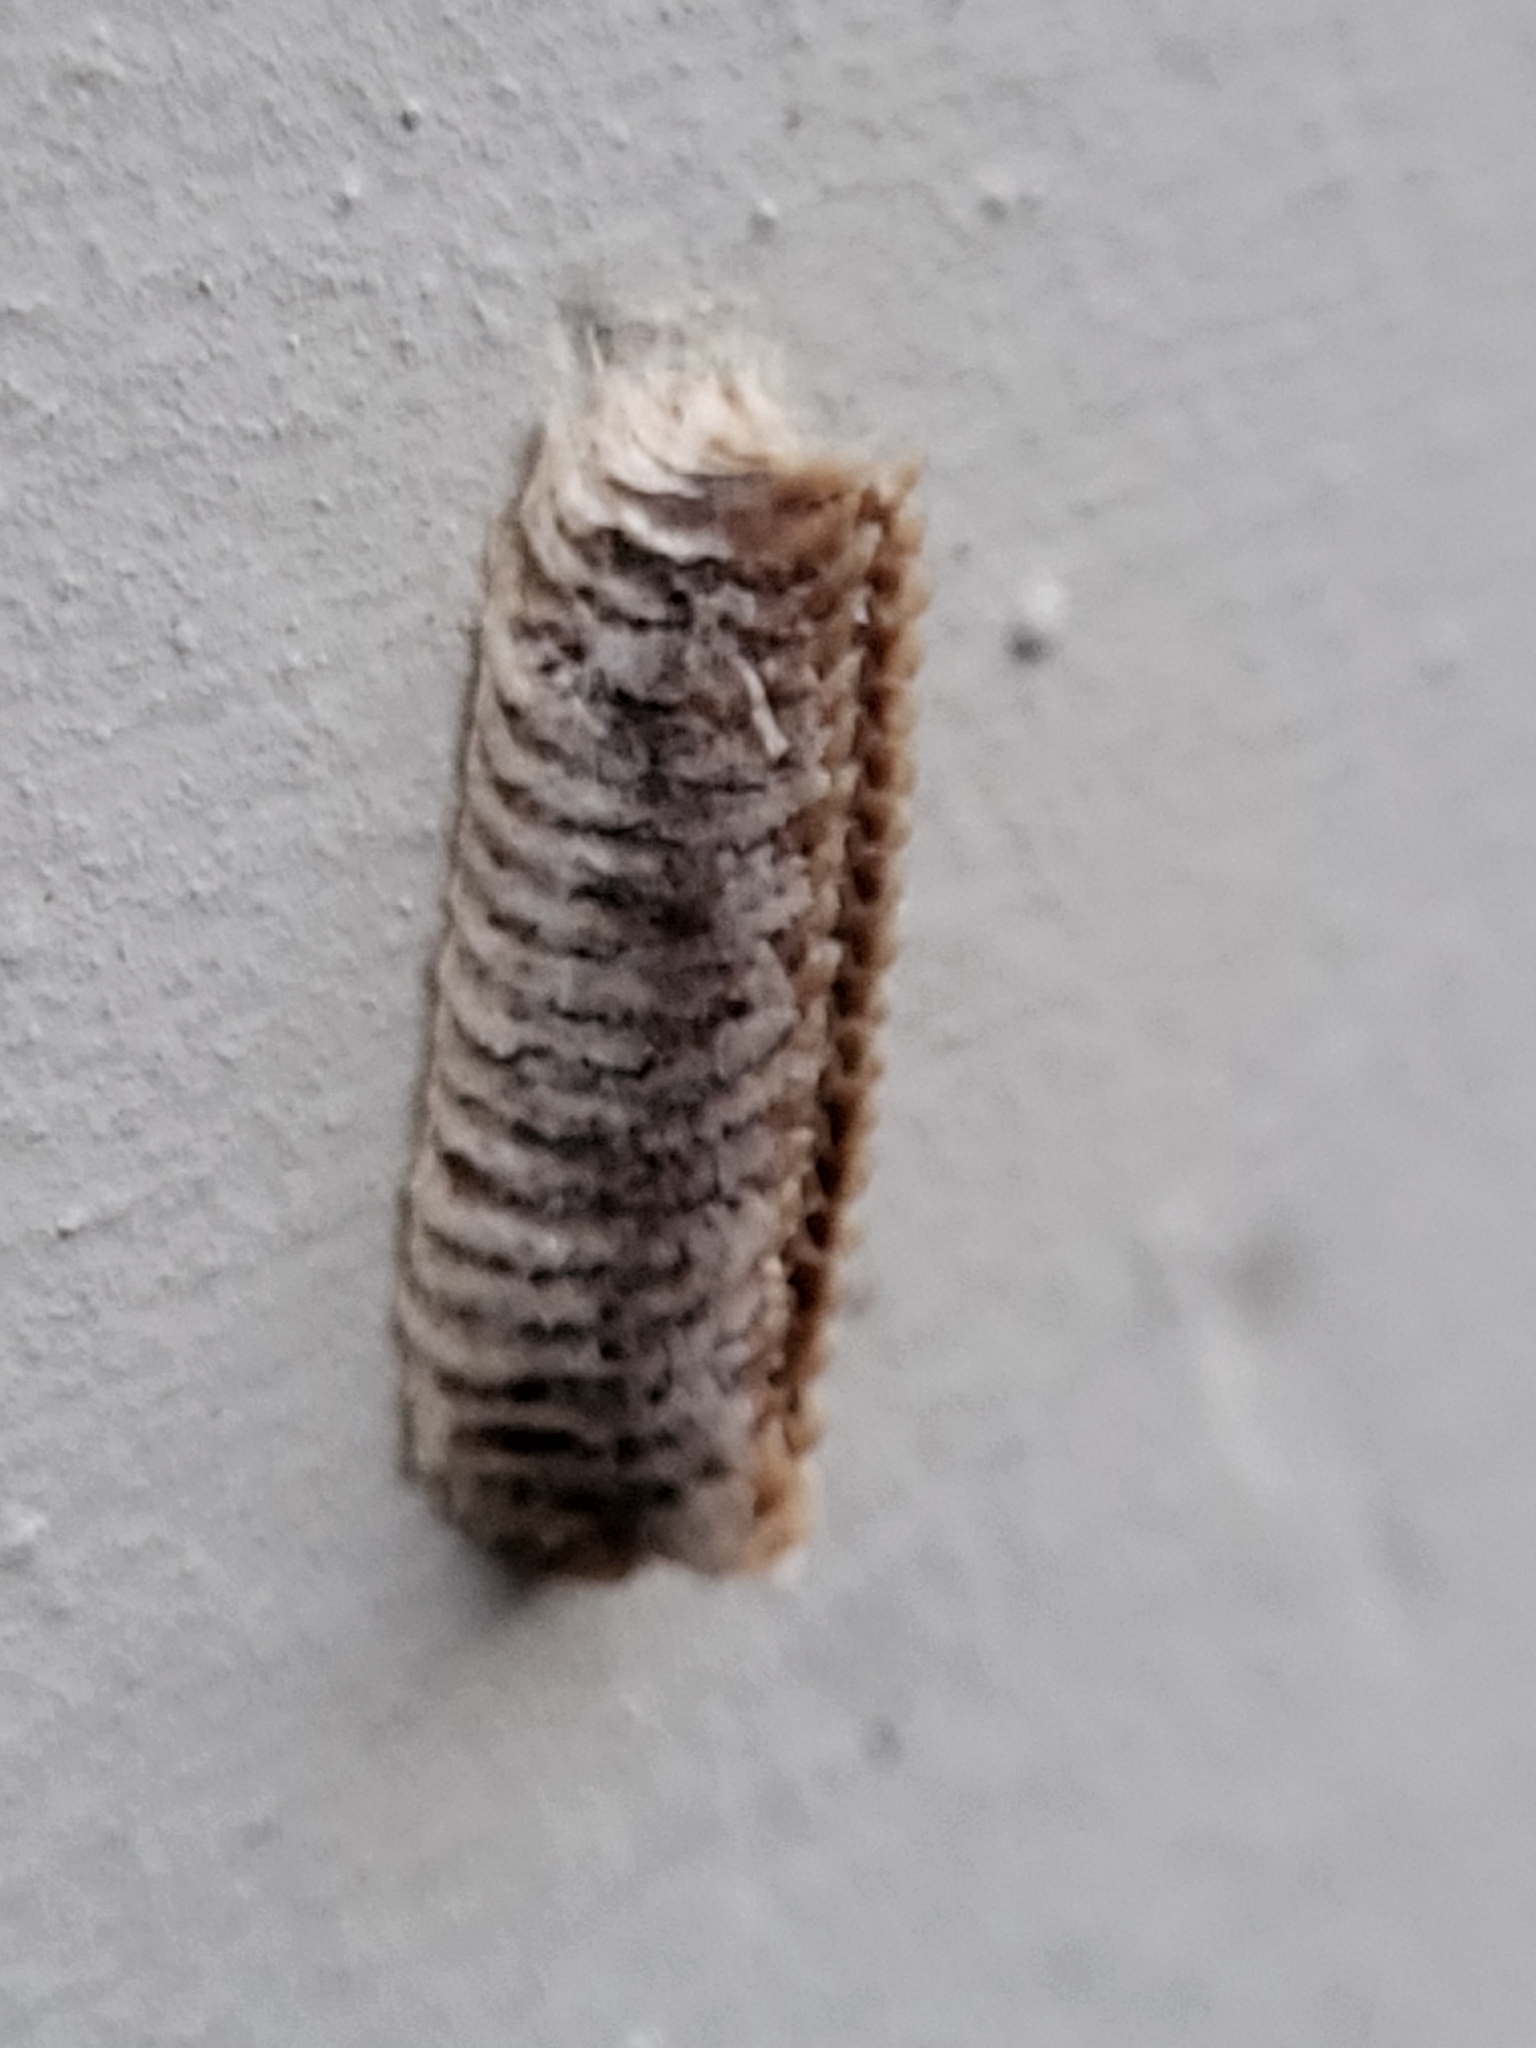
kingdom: Animalia
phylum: Arthropoda
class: Insecta
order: Mantodea
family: Eremiaphilidae
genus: Iris
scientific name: Iris oratoria
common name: Mediterranean mantis
